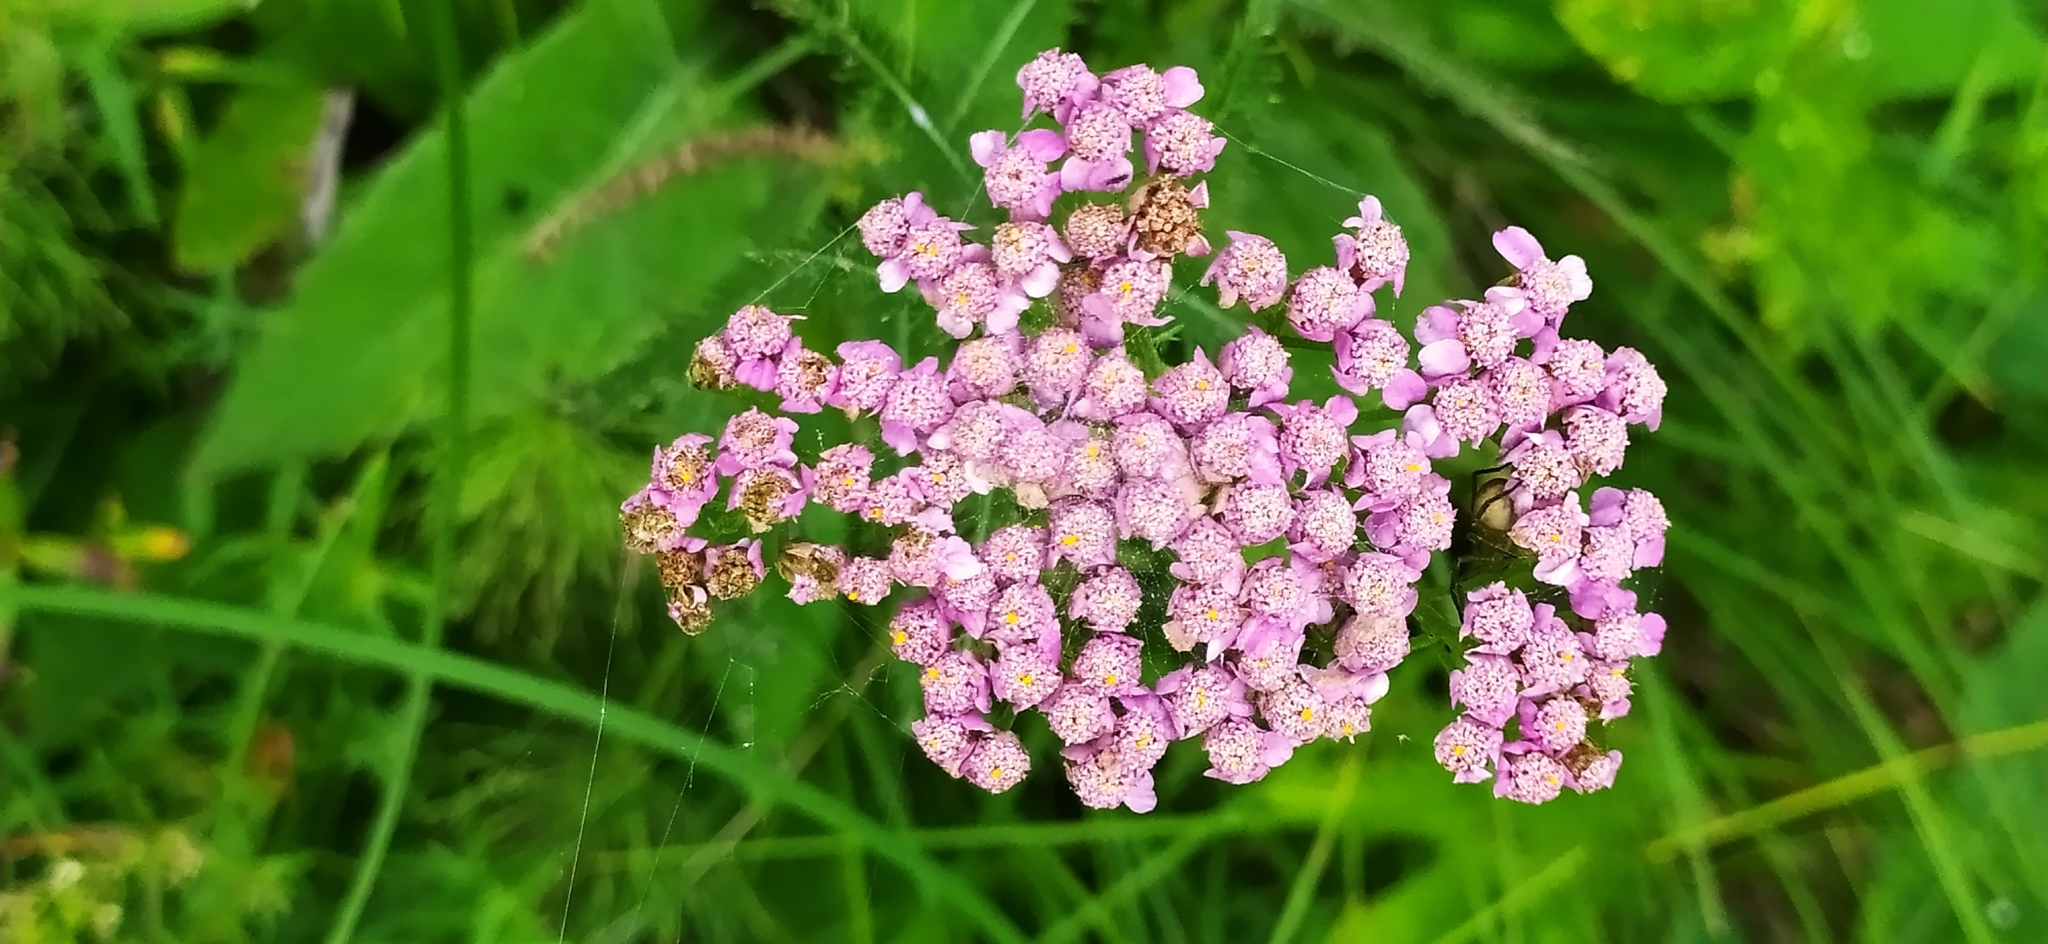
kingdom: Plantae
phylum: Tracheophyta
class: Magnoliopsida
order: Asterales
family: Asteraceae
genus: Achillea
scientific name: Achillea asiatica
